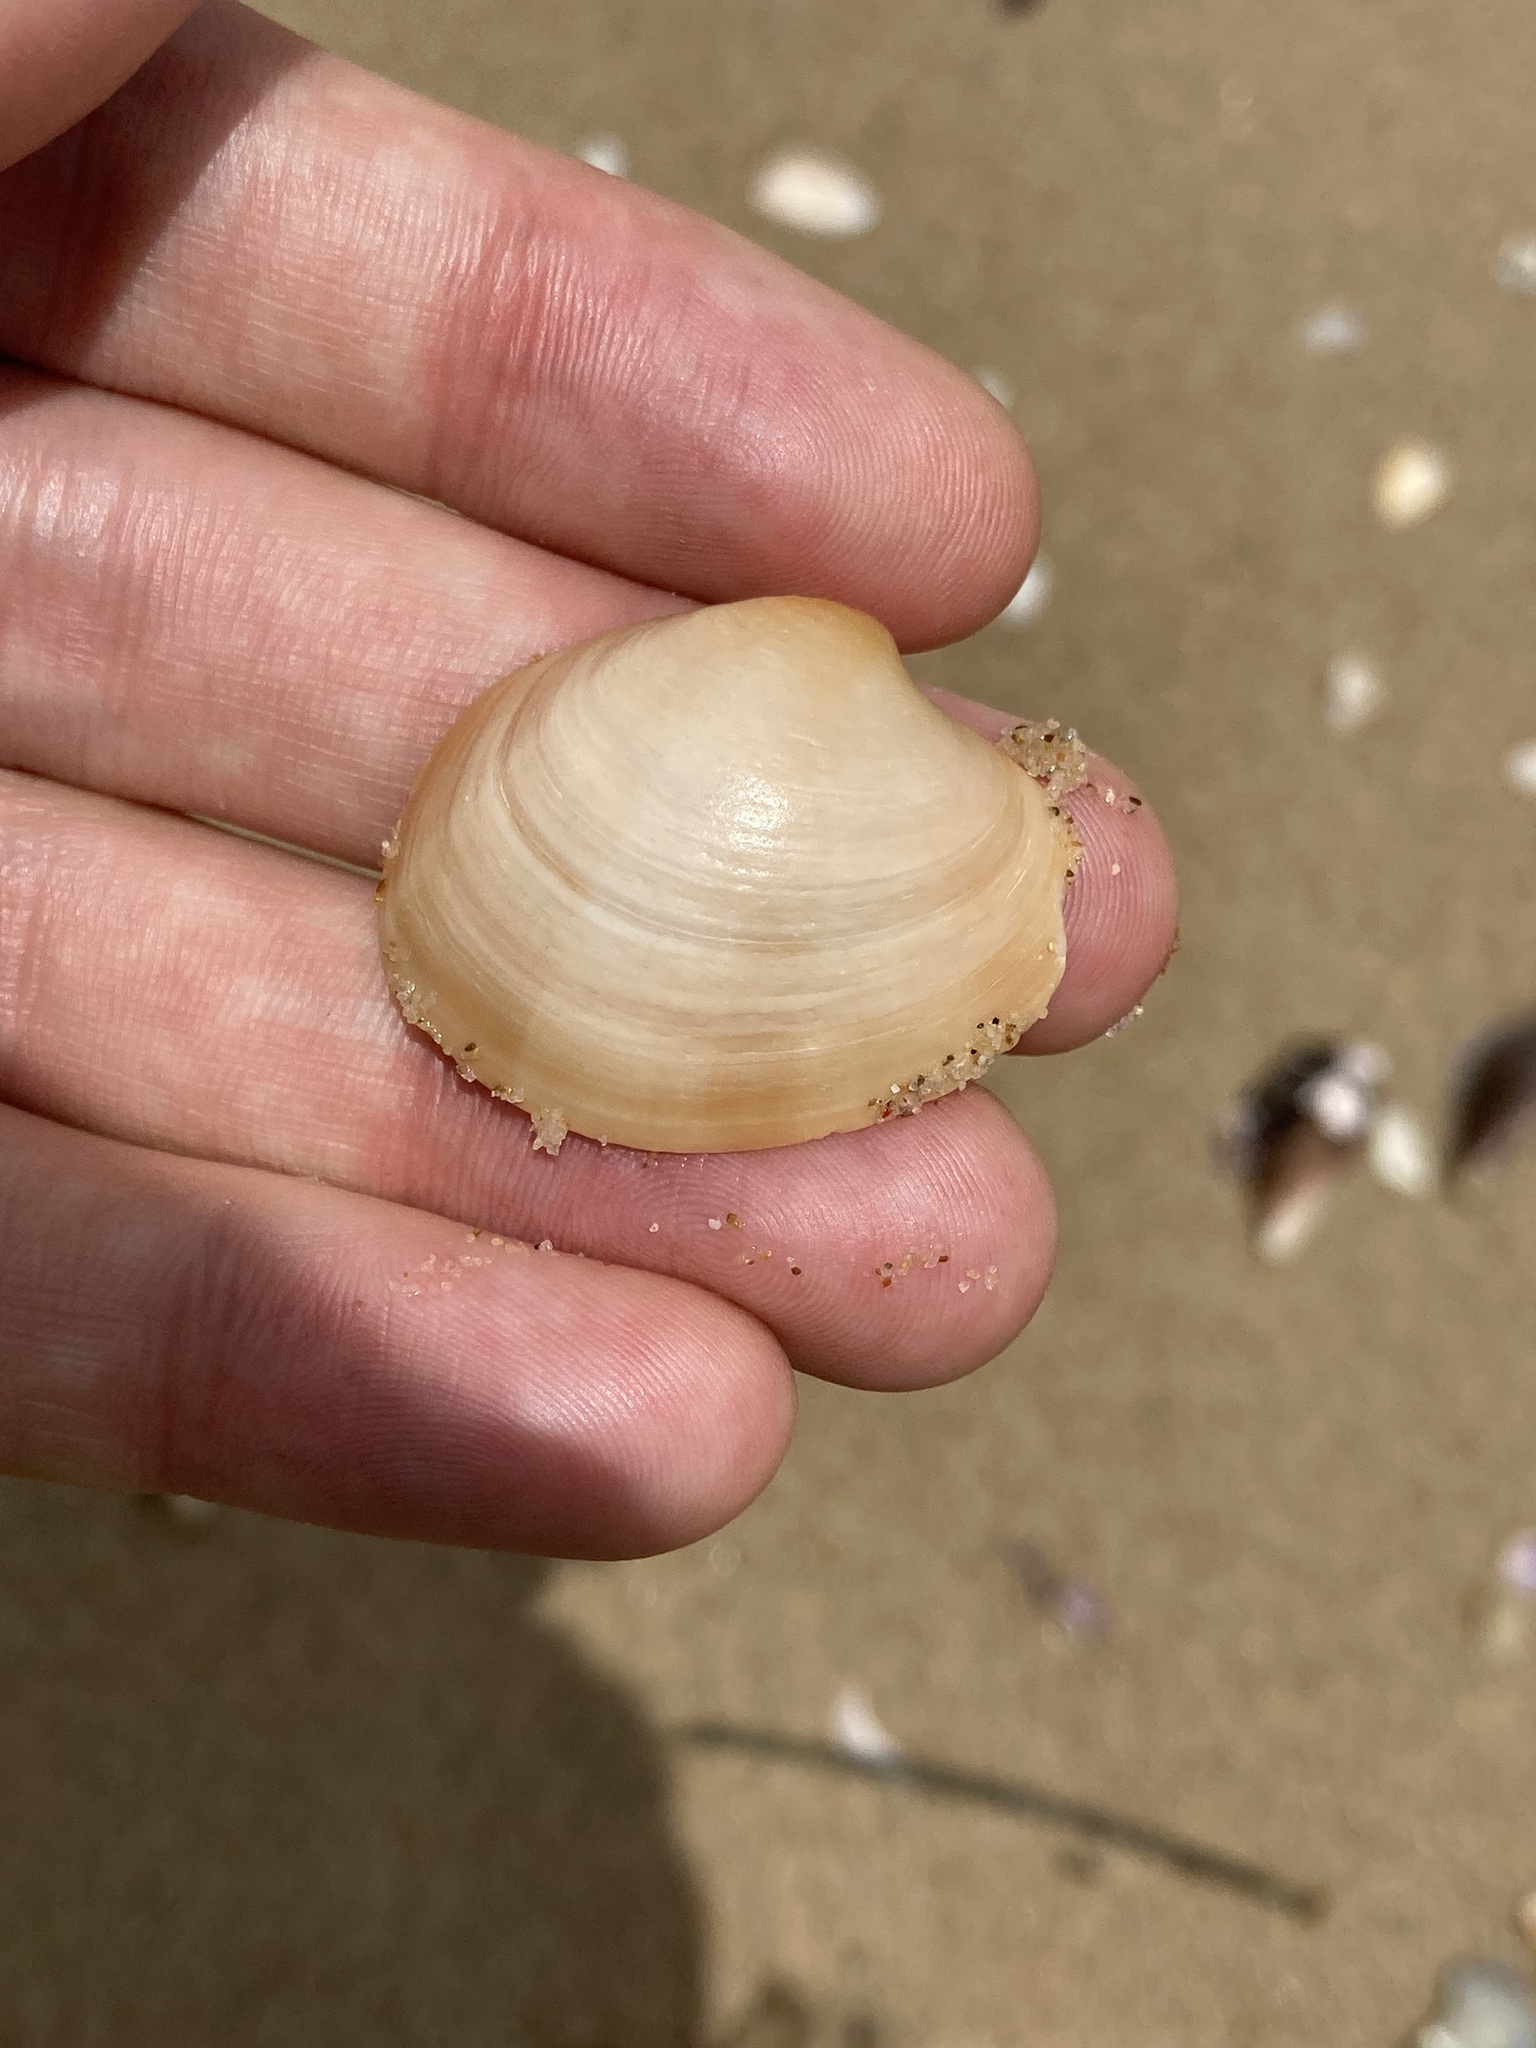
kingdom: Animalia
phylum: Mollusca
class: Bivalvia
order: Venerida
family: Veneridae
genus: Bassina
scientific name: Bassina pachyphylla
